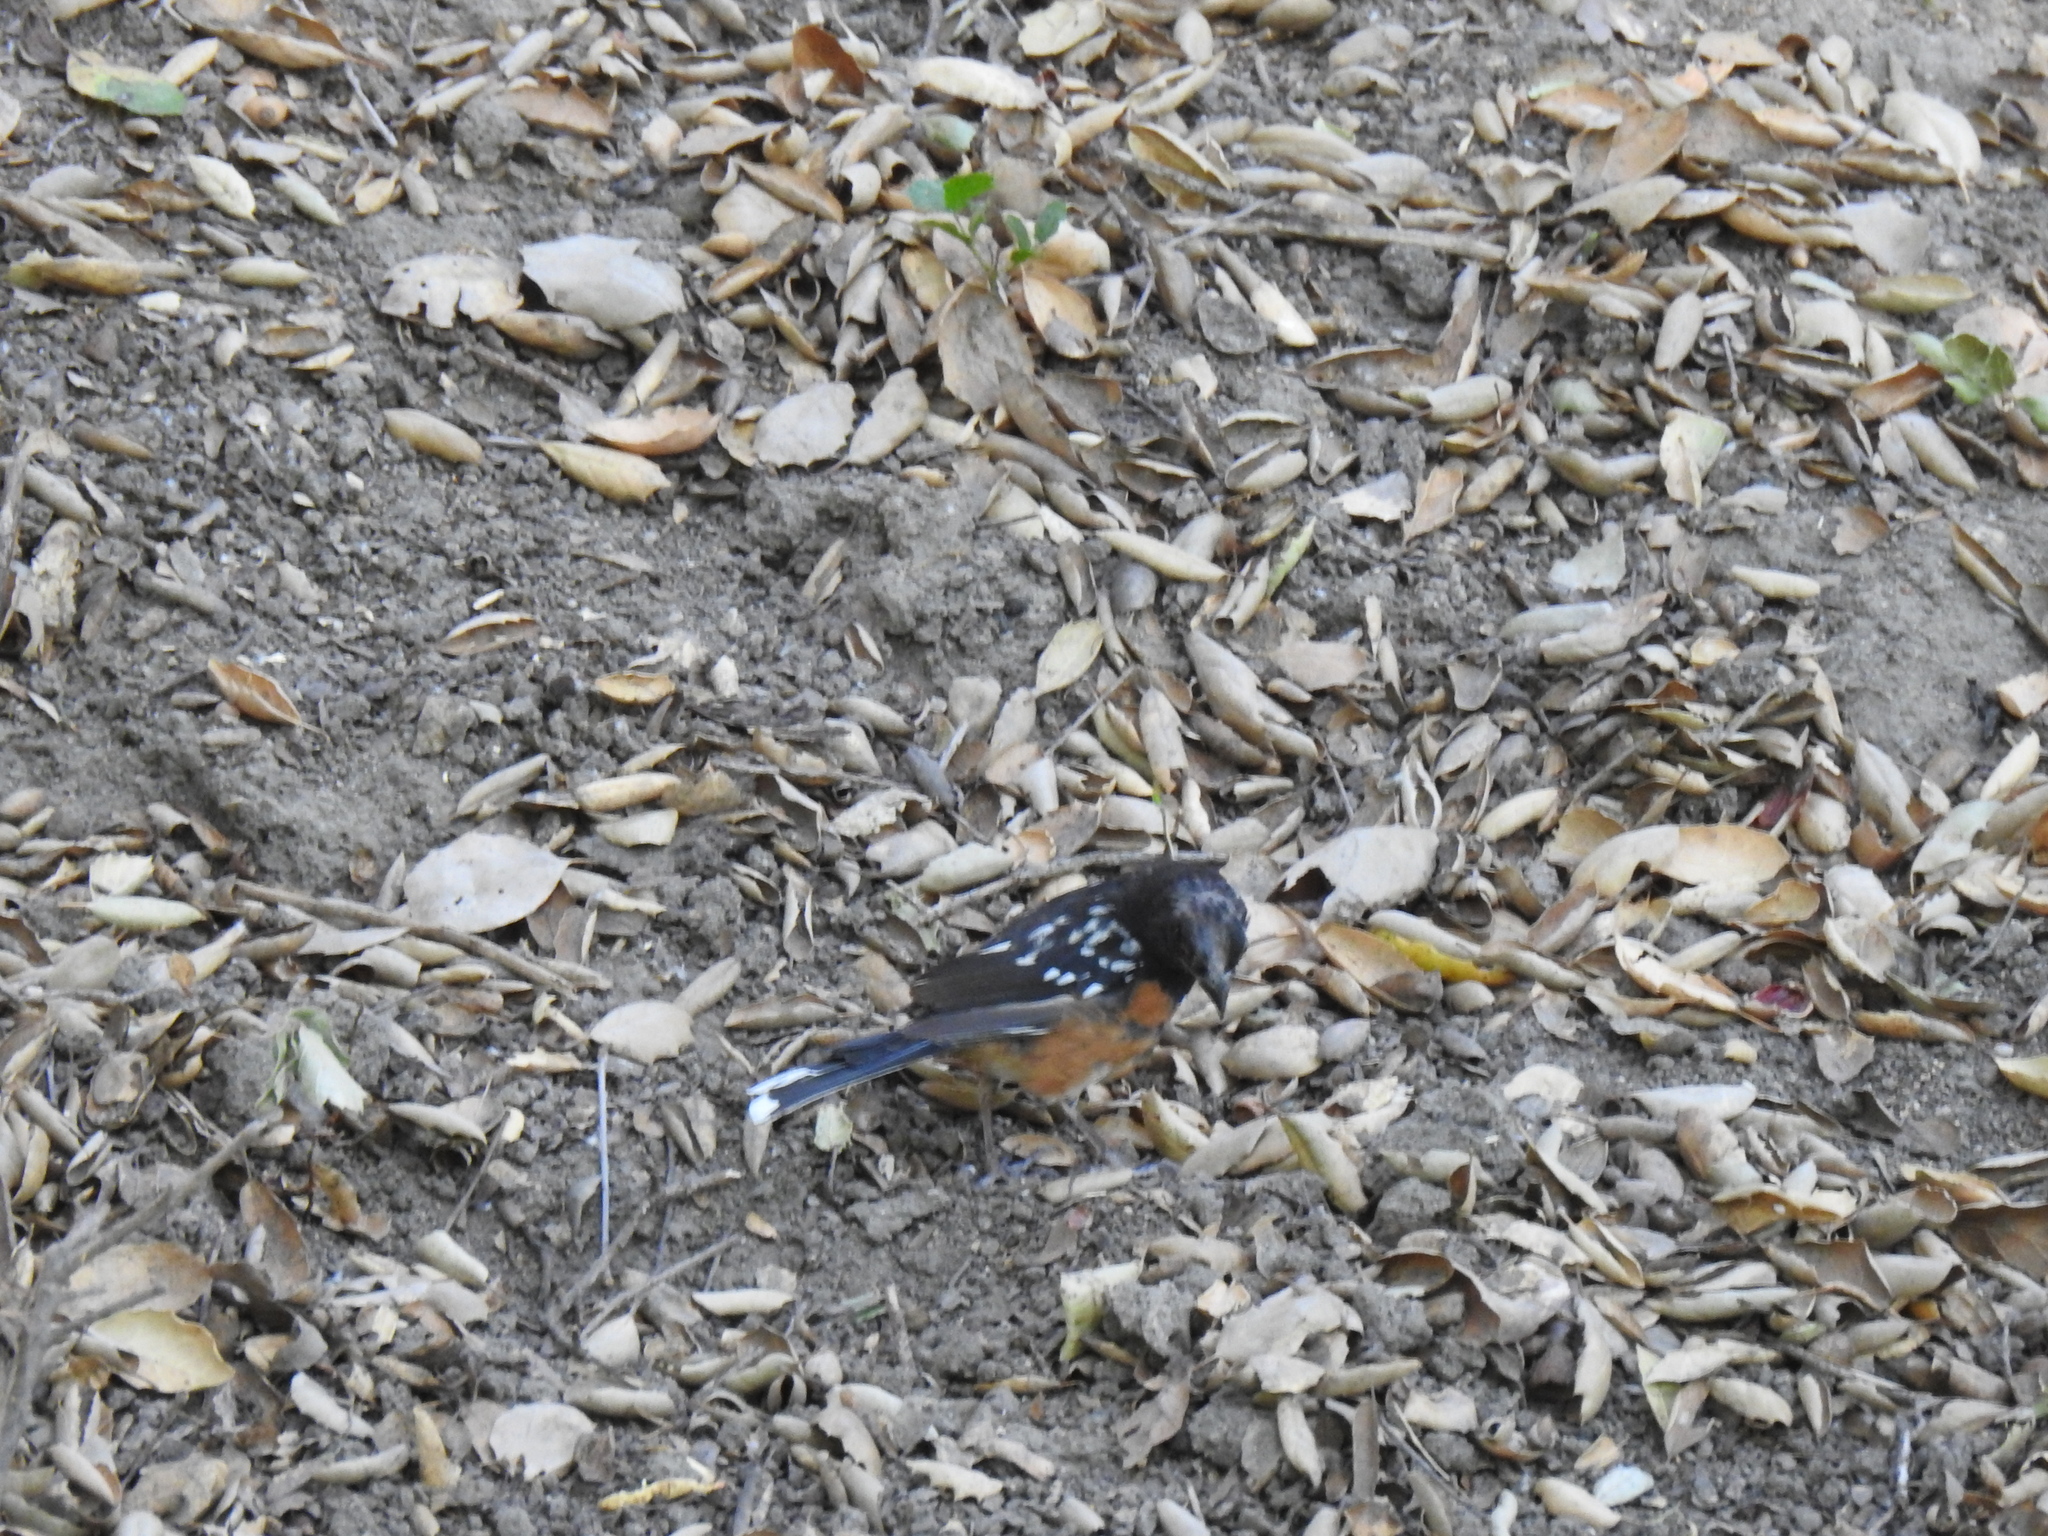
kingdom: Animalia
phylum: Chordata
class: Aves
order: Passeriformes
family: Passerellidae
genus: Pipilo
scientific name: Pipilo maculatus
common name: Spotted towhee
